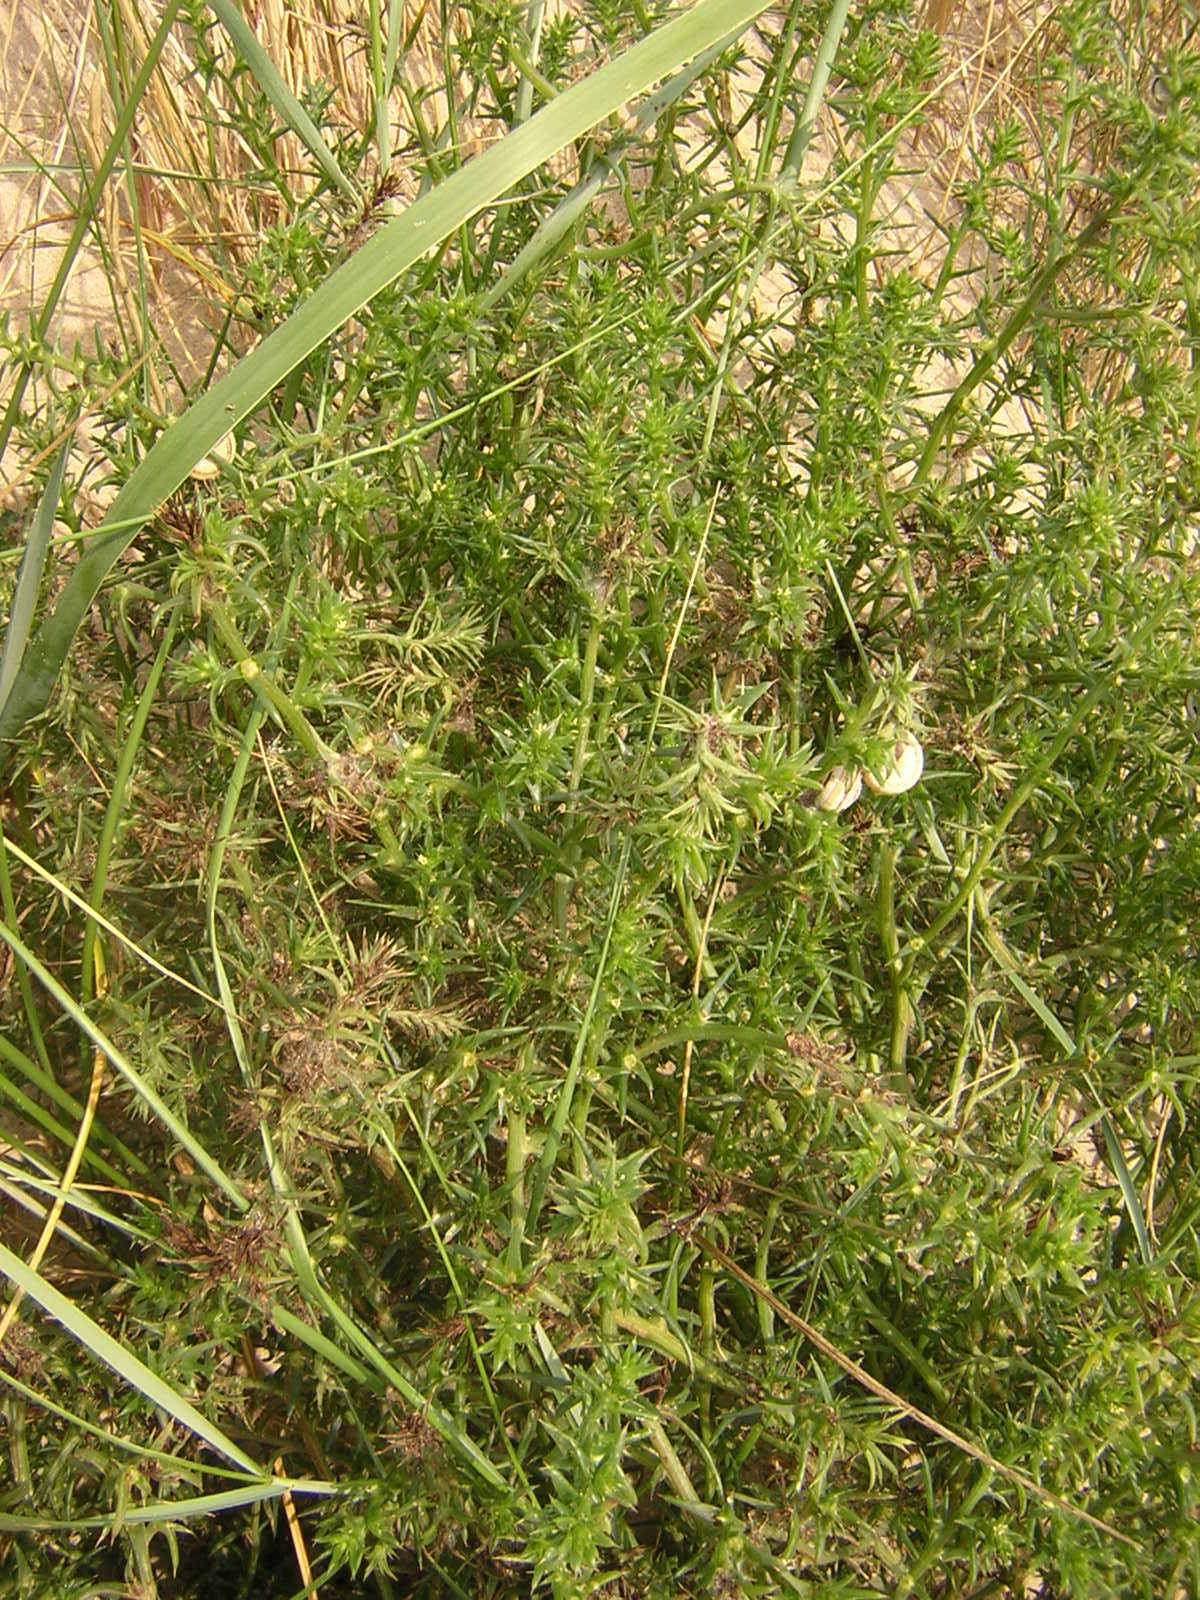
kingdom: Plantae
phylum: Tracheophyta
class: Magnoliopsida
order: Caryophyllales
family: Amaranthaceae
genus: Salsola
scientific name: Salsola kali
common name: Saltwort
